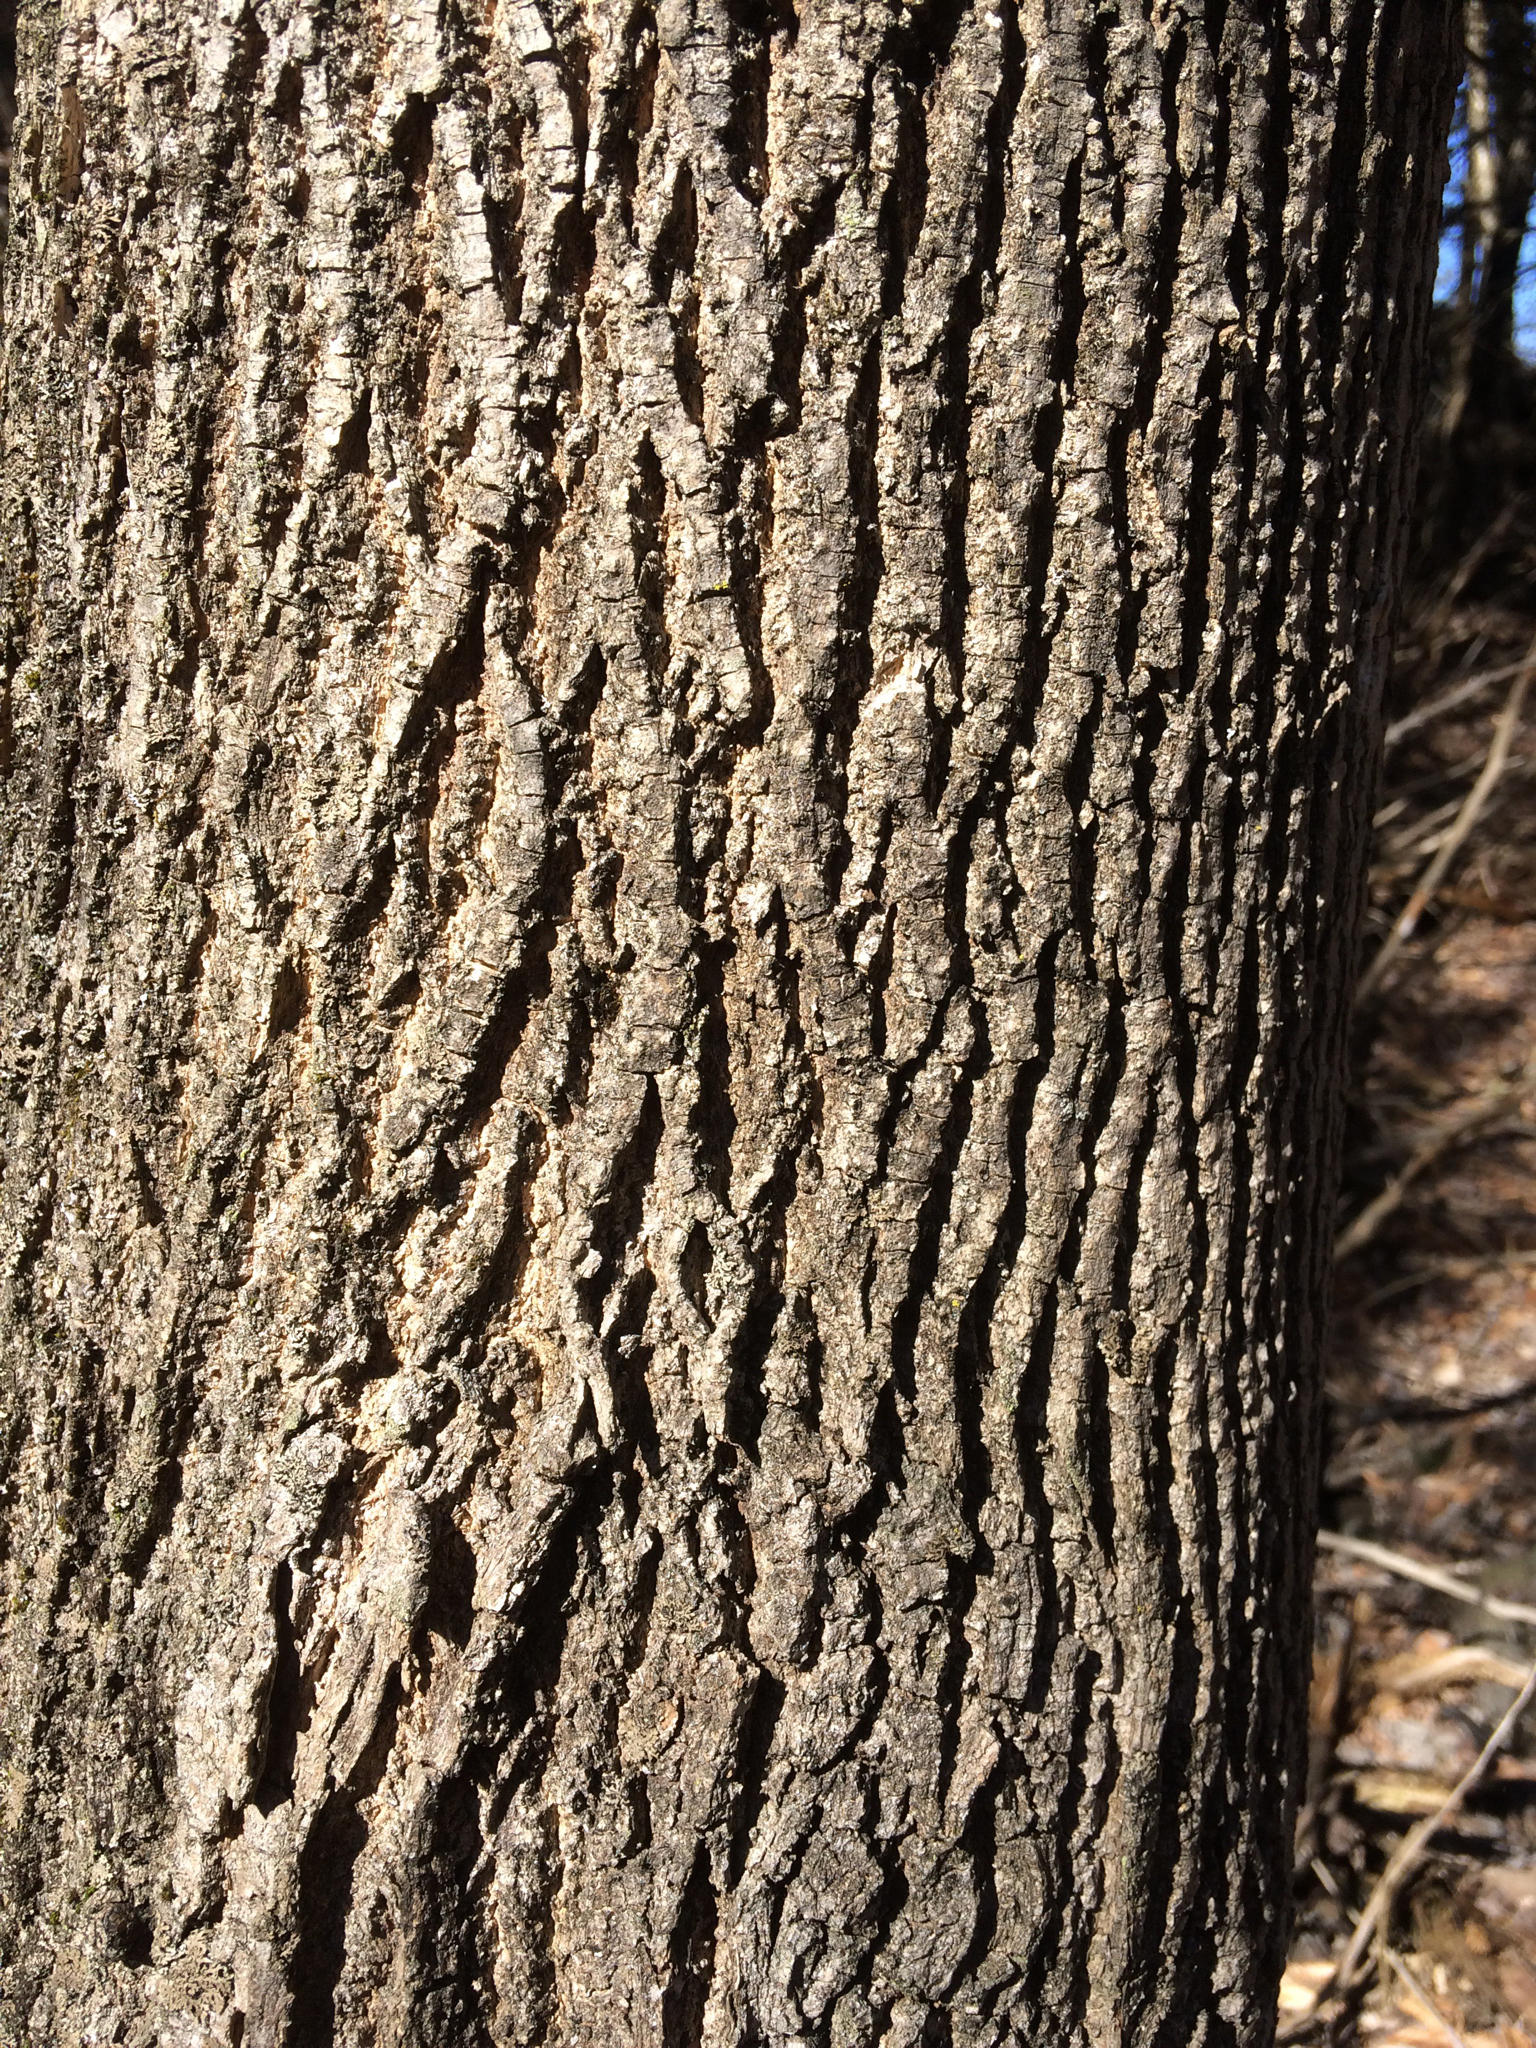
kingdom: Plantae
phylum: Tracheophyta
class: Magnoliopsida
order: Lamiales
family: Oleaceae
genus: Fraxinus
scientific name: Fraxinus americana
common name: White ash
